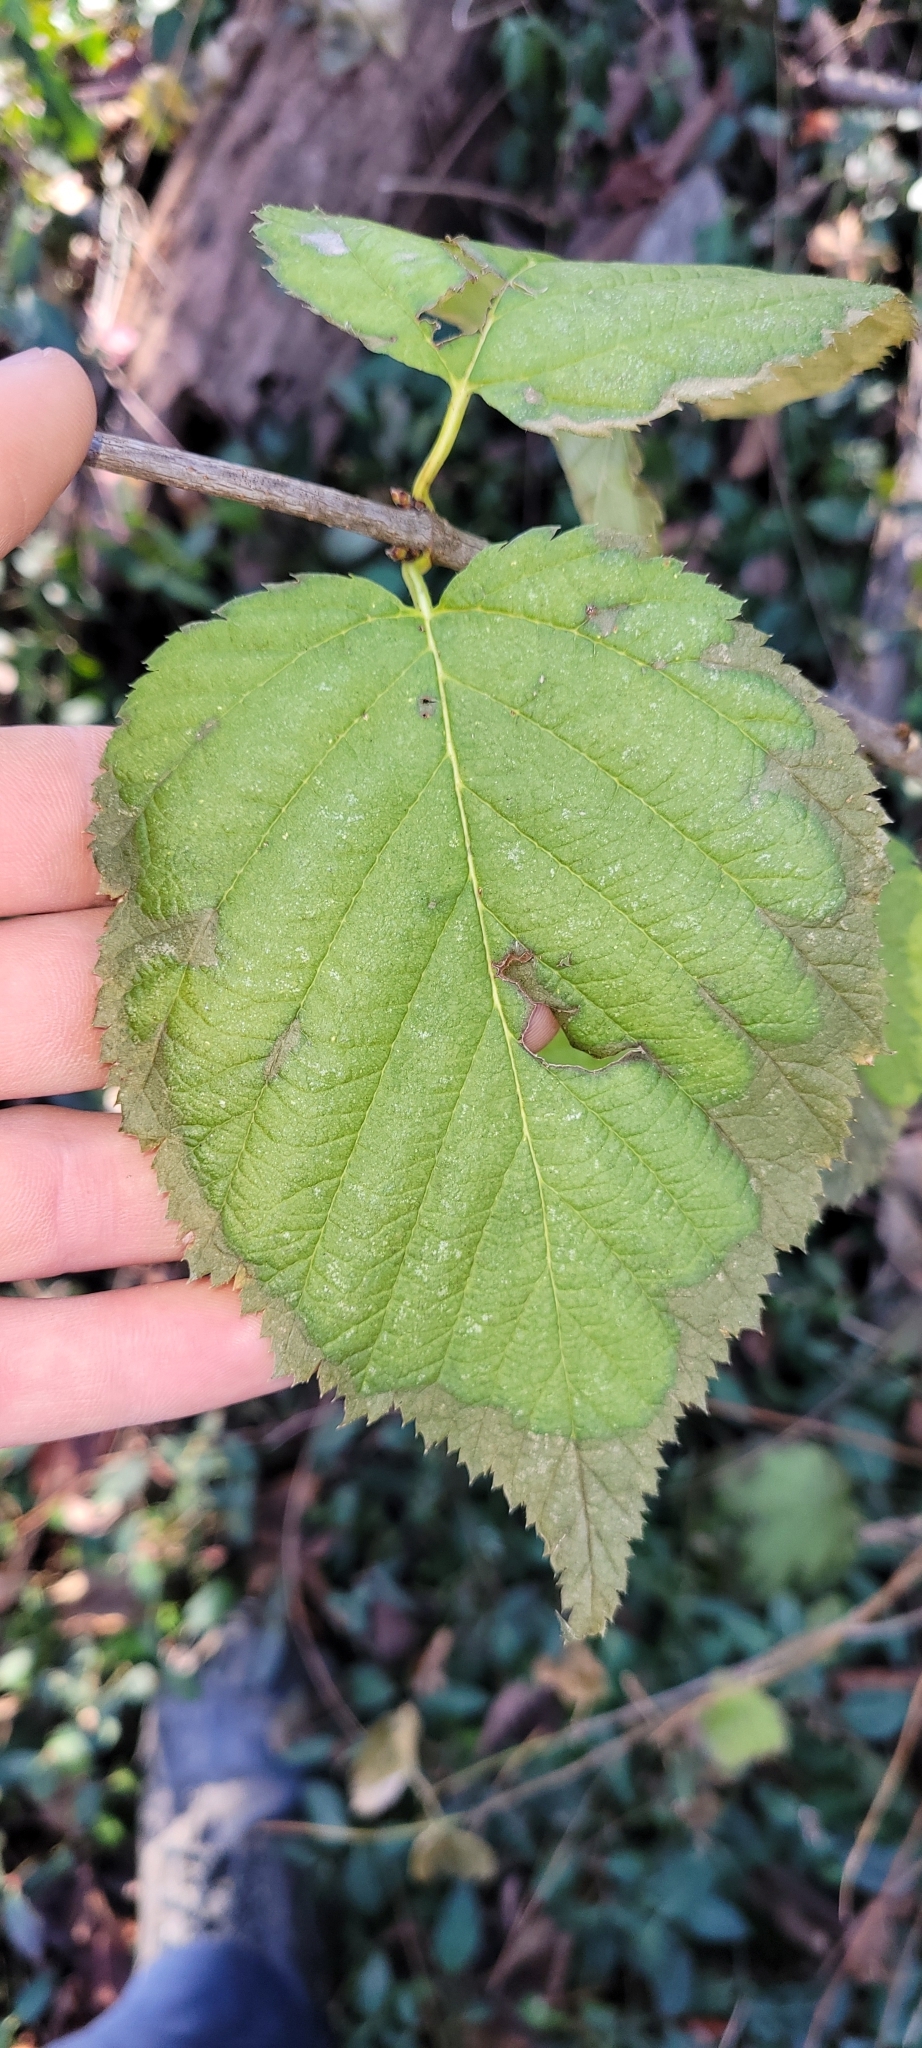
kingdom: Plantae
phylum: Tracheophyta
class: Magnoliopsida
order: Rosales
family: Rosaceae
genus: Rhodotypos
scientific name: Rhodotypos scandens
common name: Jetbead
